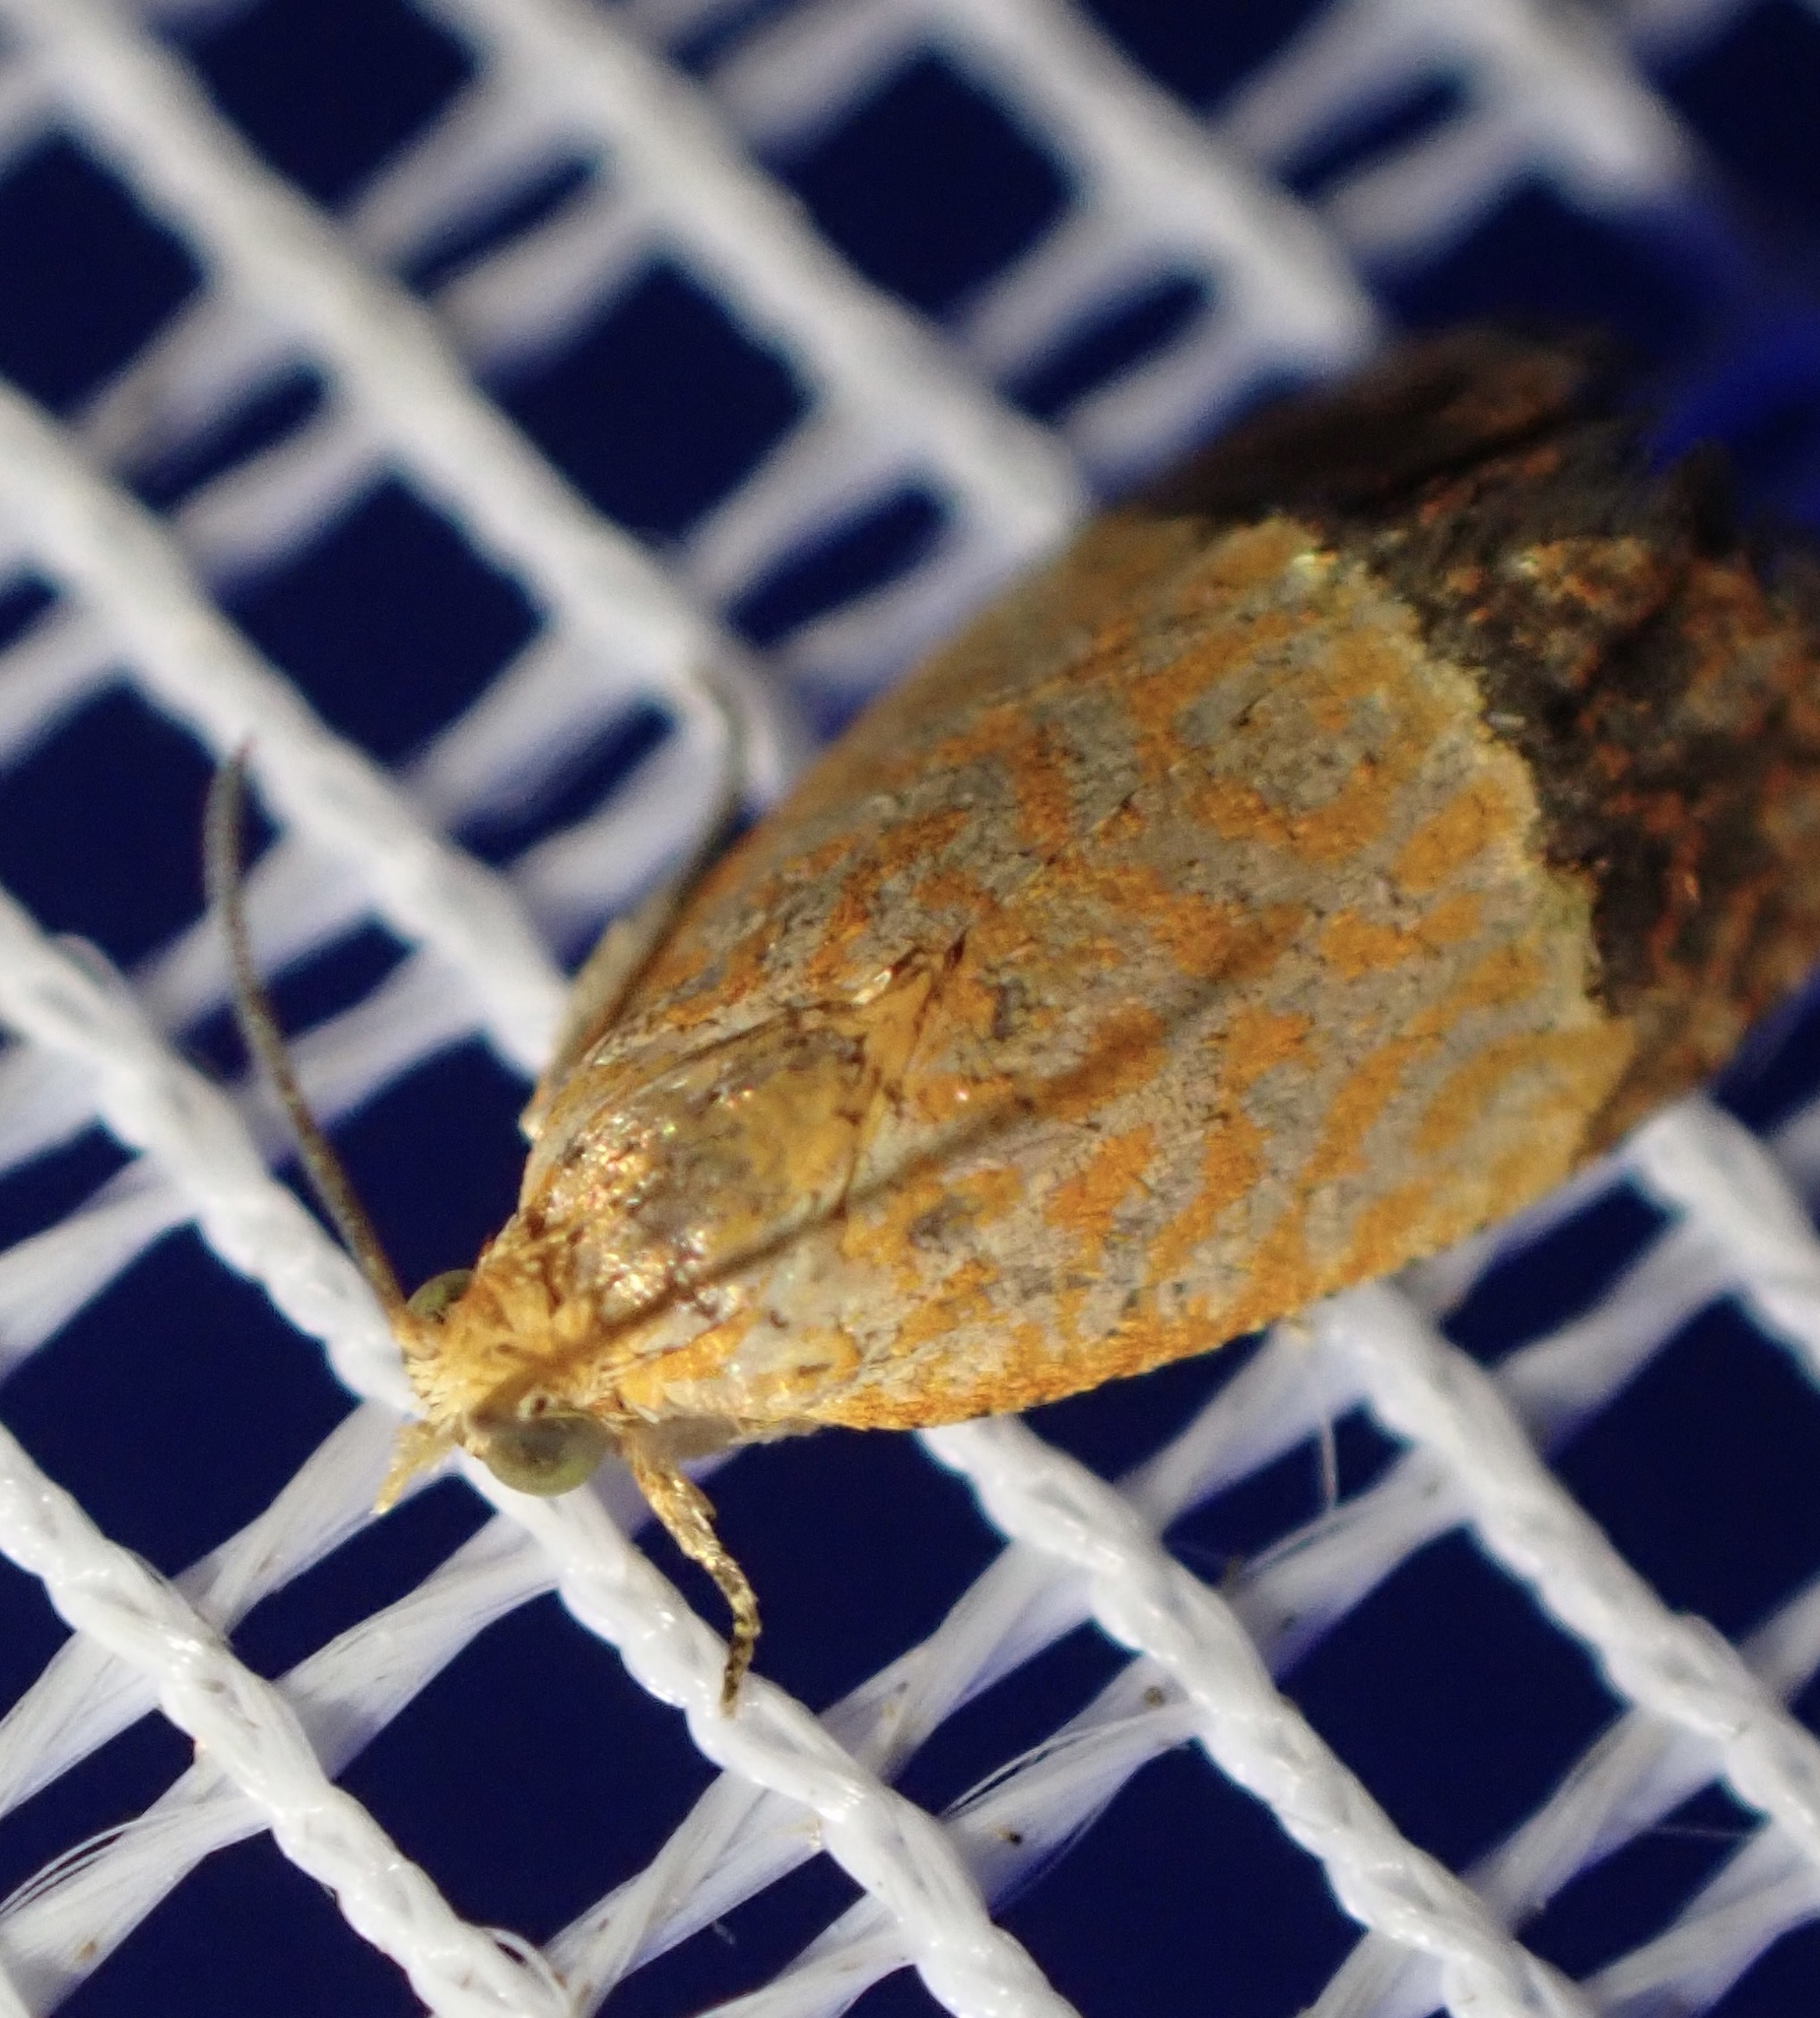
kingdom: Animalia
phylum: Arthropoda
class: Insecta
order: Lepidoptera
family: Tortricidae
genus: Loboschiza
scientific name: Loboschiza koenigiana
